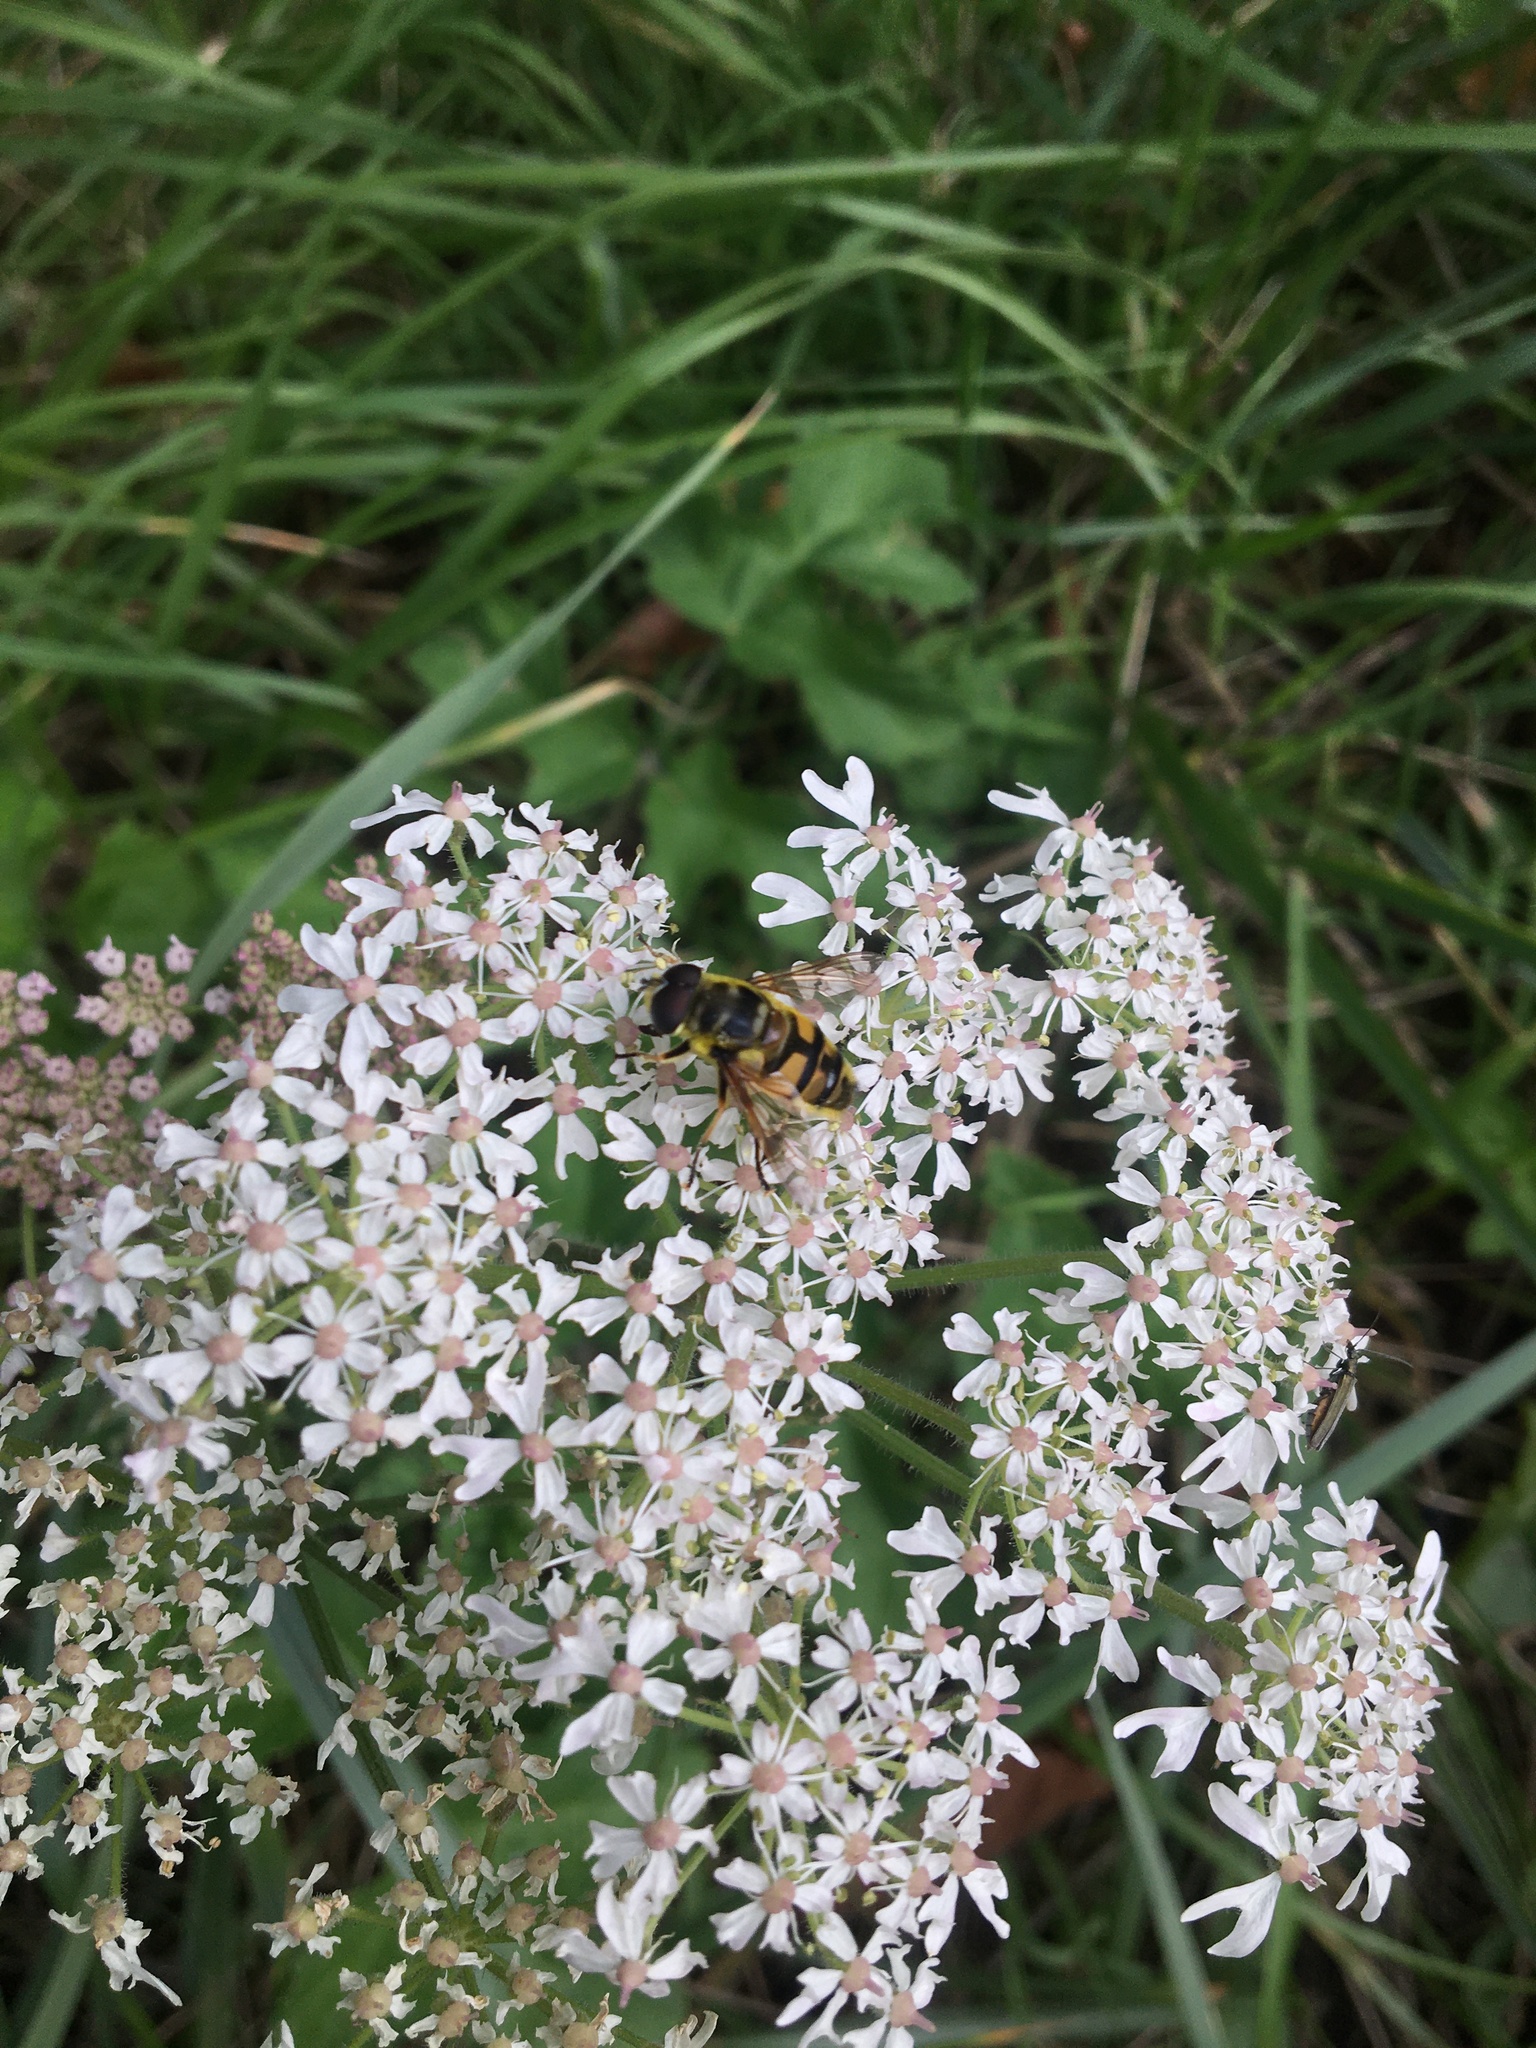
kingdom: Animalia
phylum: Arthropoda
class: Insecta
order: Diptera
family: Syrphidae
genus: Myathropa
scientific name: Myathropa florea
